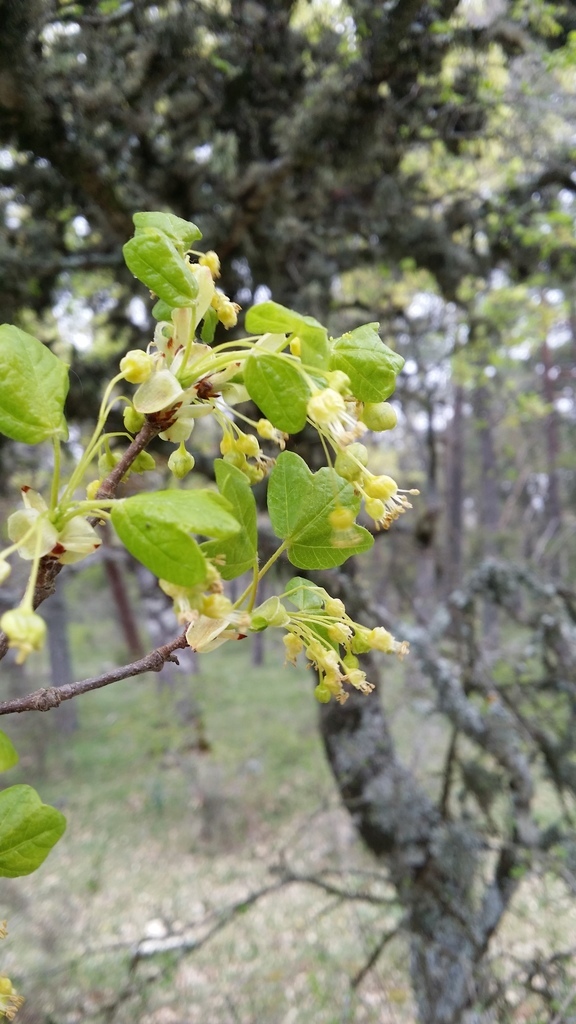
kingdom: Plantae
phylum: Tracheophyta
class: Magnoliopsida
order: Sapindales
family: Sapindaceae
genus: Acer
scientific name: Acer monspessulanum
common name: Montpellier maple
